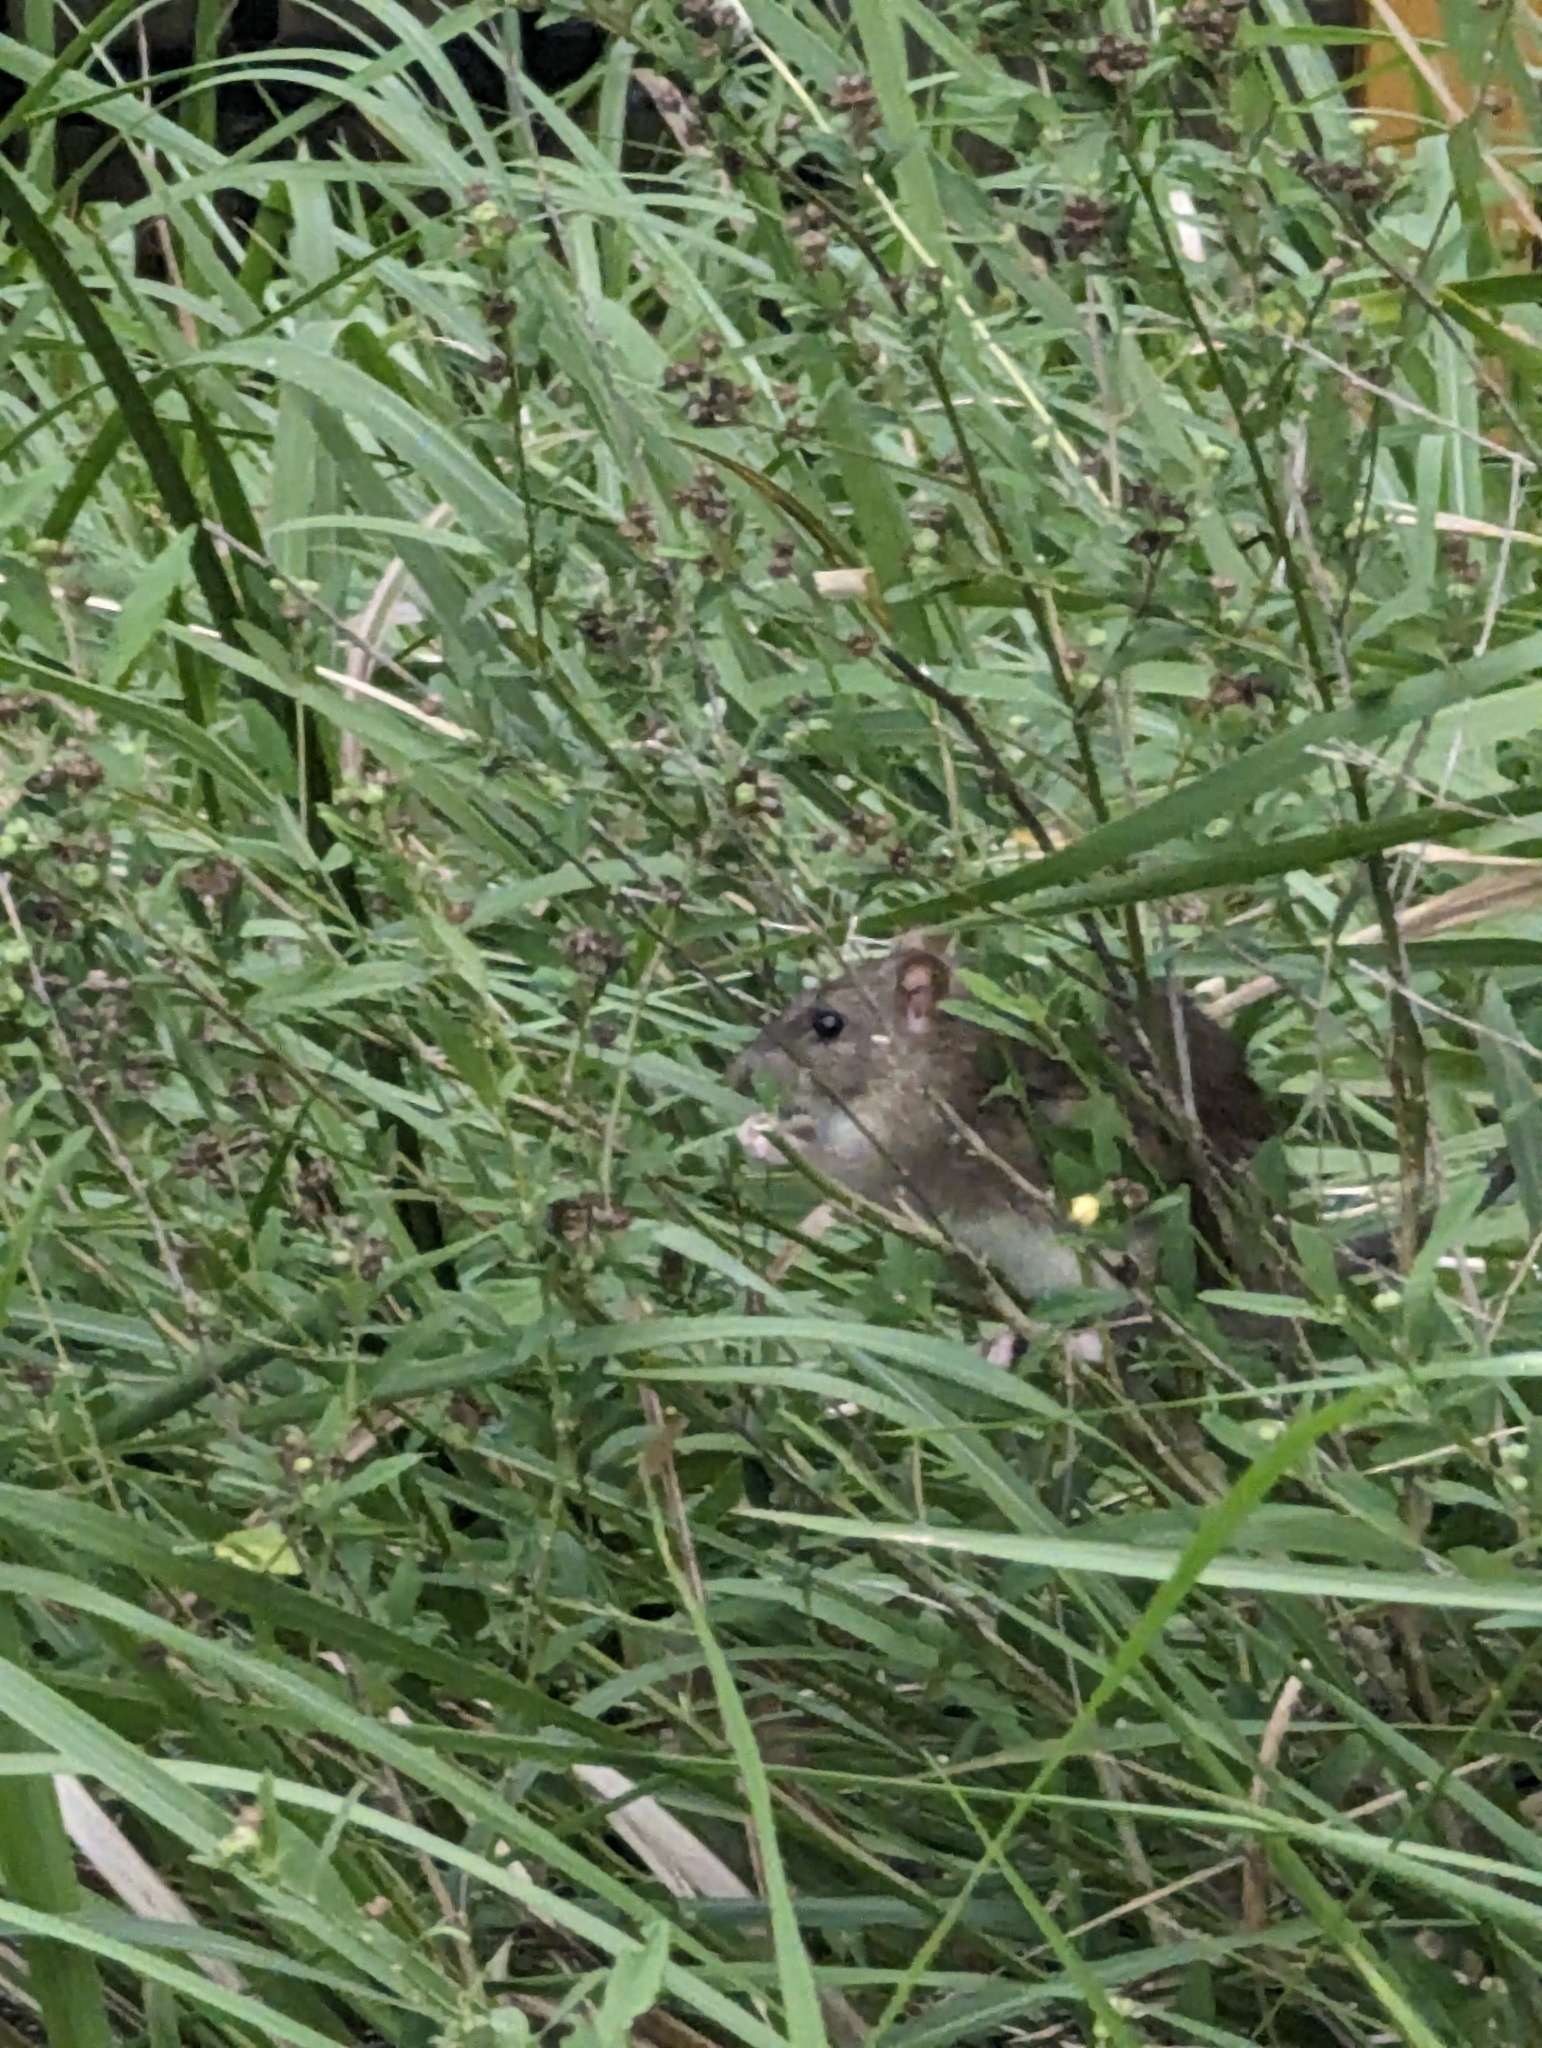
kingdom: Animalia
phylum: Chordata
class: Mammalia
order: Rodentia
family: Muridae
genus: Rattus
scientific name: Rattus norvegicus
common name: Brown rat
